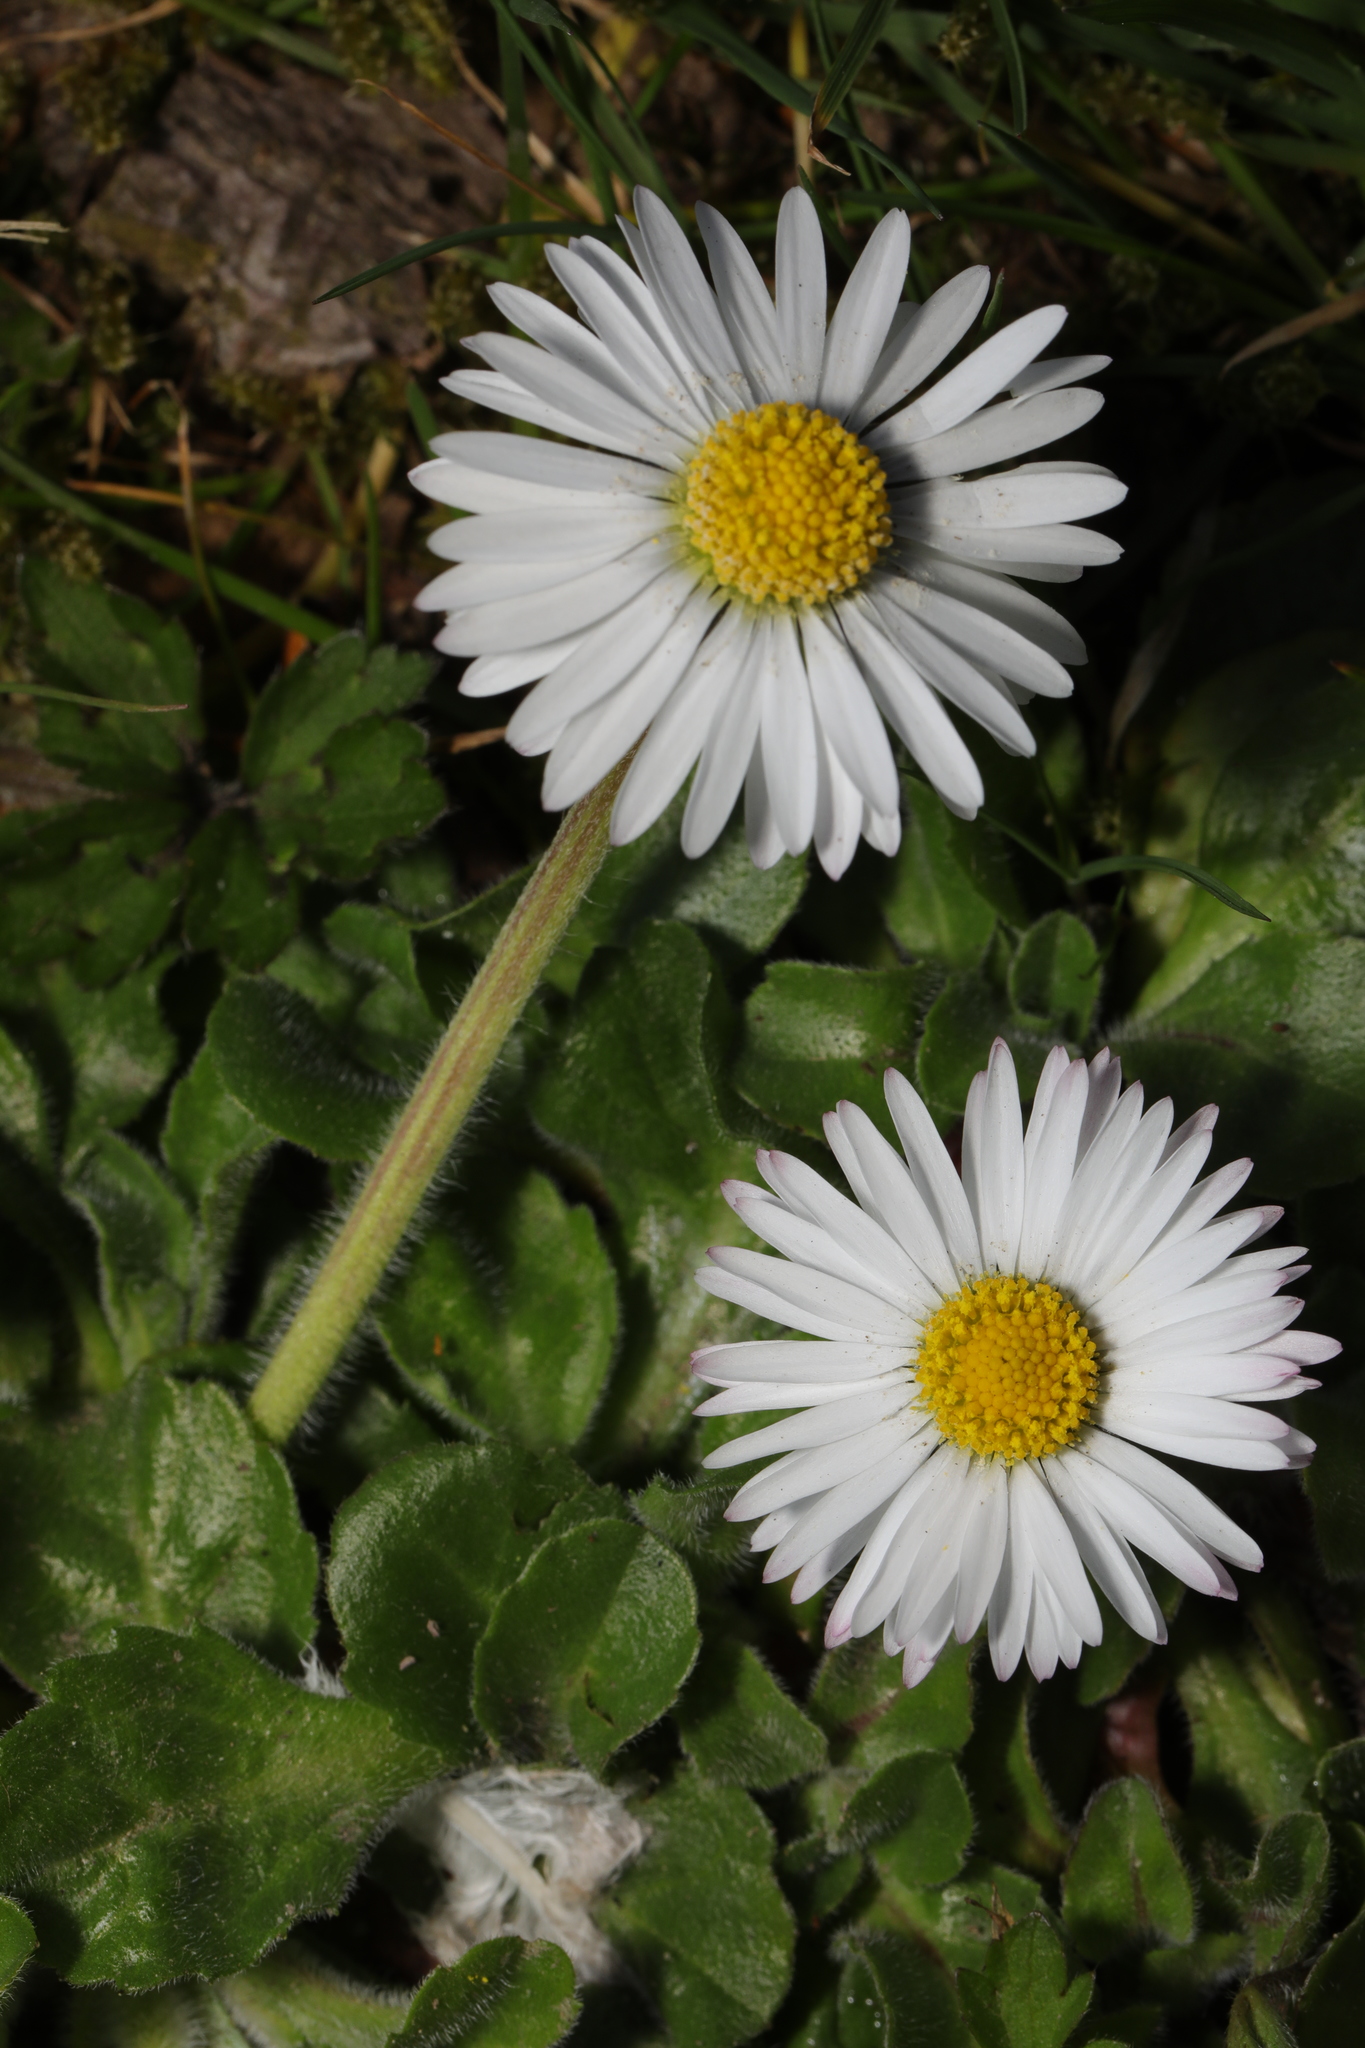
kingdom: Plantae
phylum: Tracheophyta
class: Magnoliopsida
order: Asterales
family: Asteraceae
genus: Bellis
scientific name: Bellis perennis
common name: Lawndaisy
